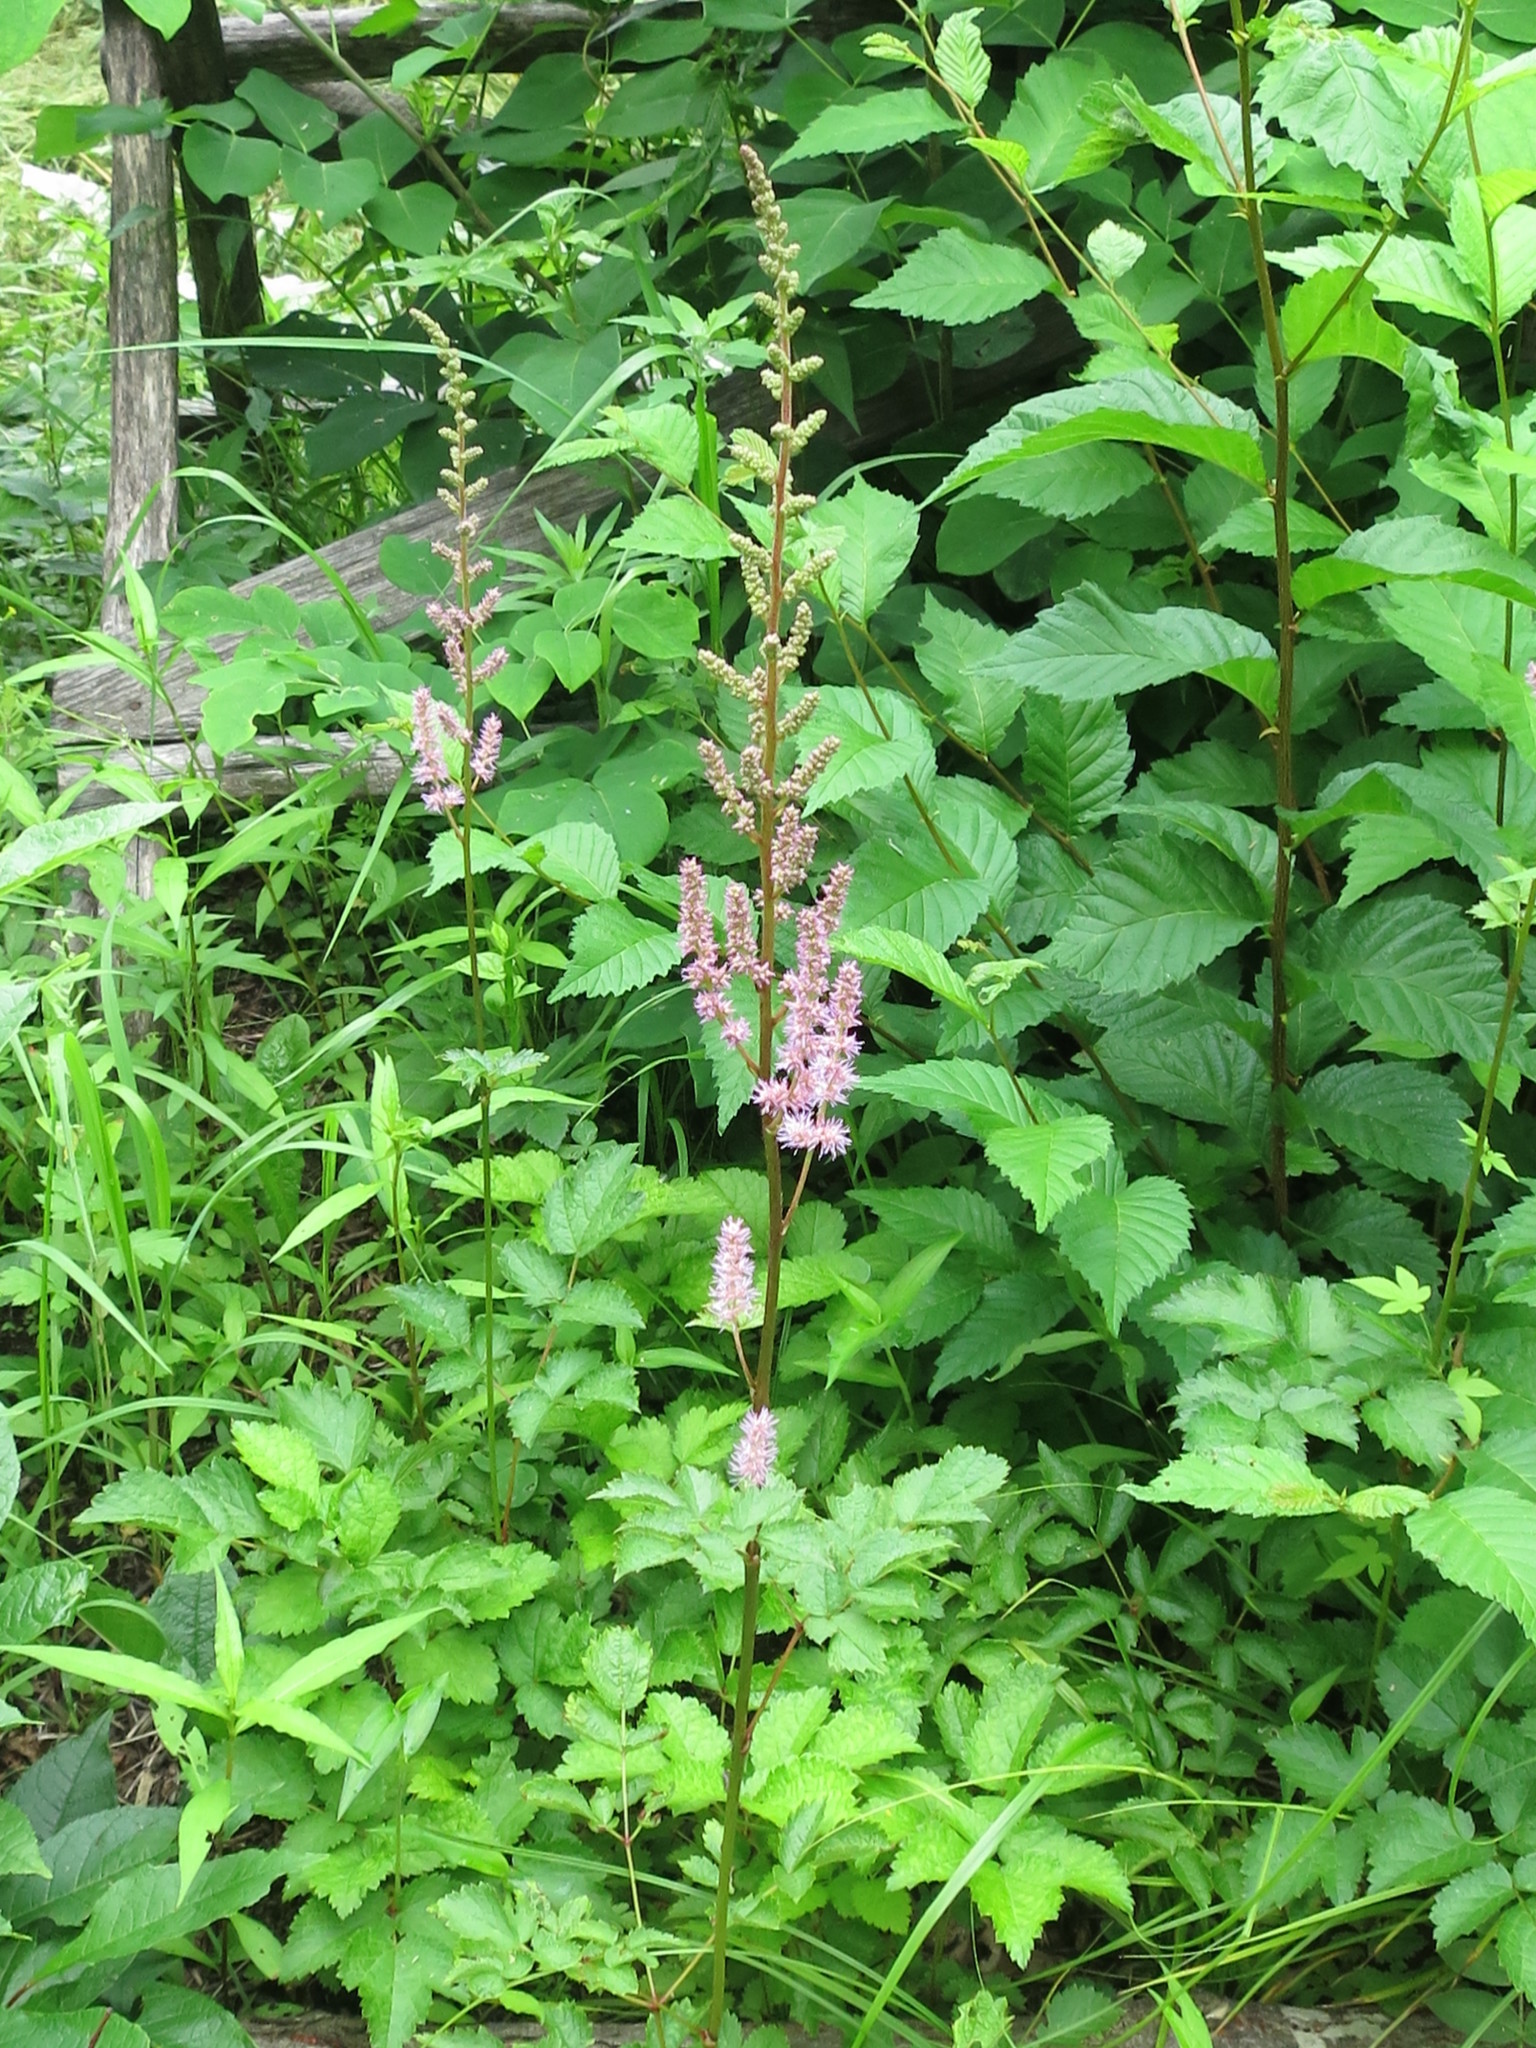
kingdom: Plantae
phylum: Tracheophyta
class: Magnoliopsida
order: Saxifragales
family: Saxifragaceae
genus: Astilbe
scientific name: Astilbe rubra
